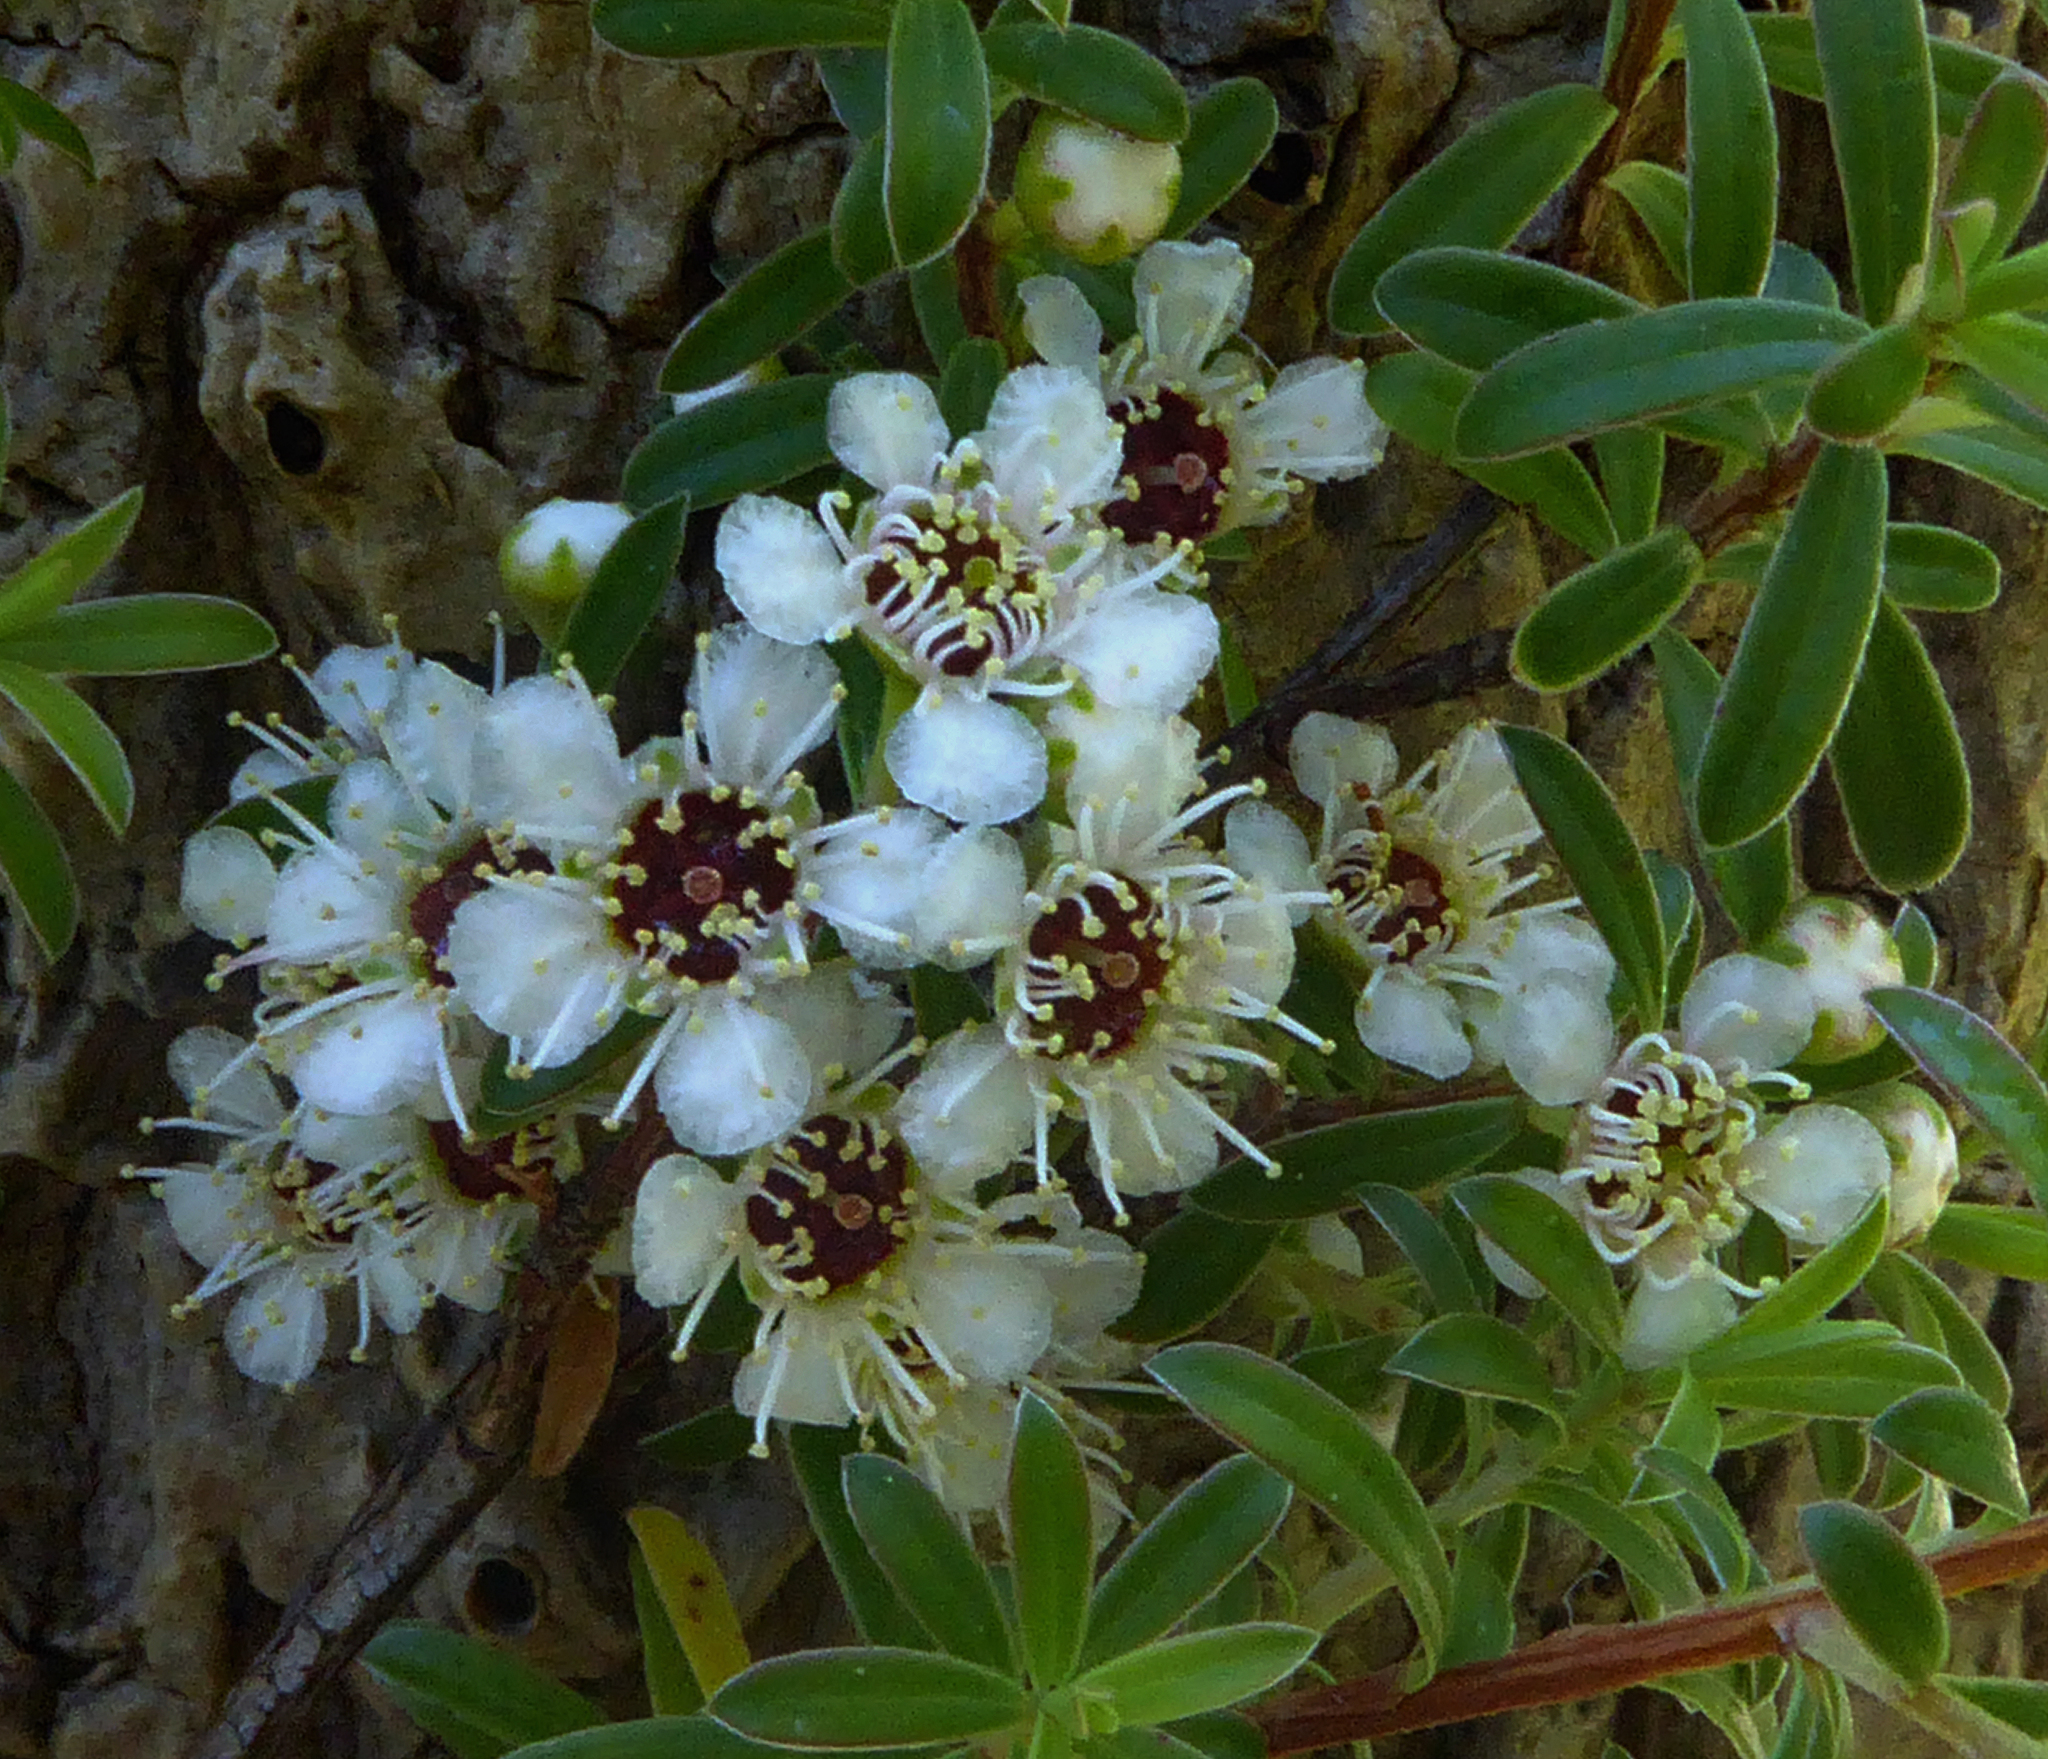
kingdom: Plantae
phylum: Tracheophyta
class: Magnoliopsida
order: Myrtales
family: Myrtaceae
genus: Kunzea
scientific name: Kunzea robusta
